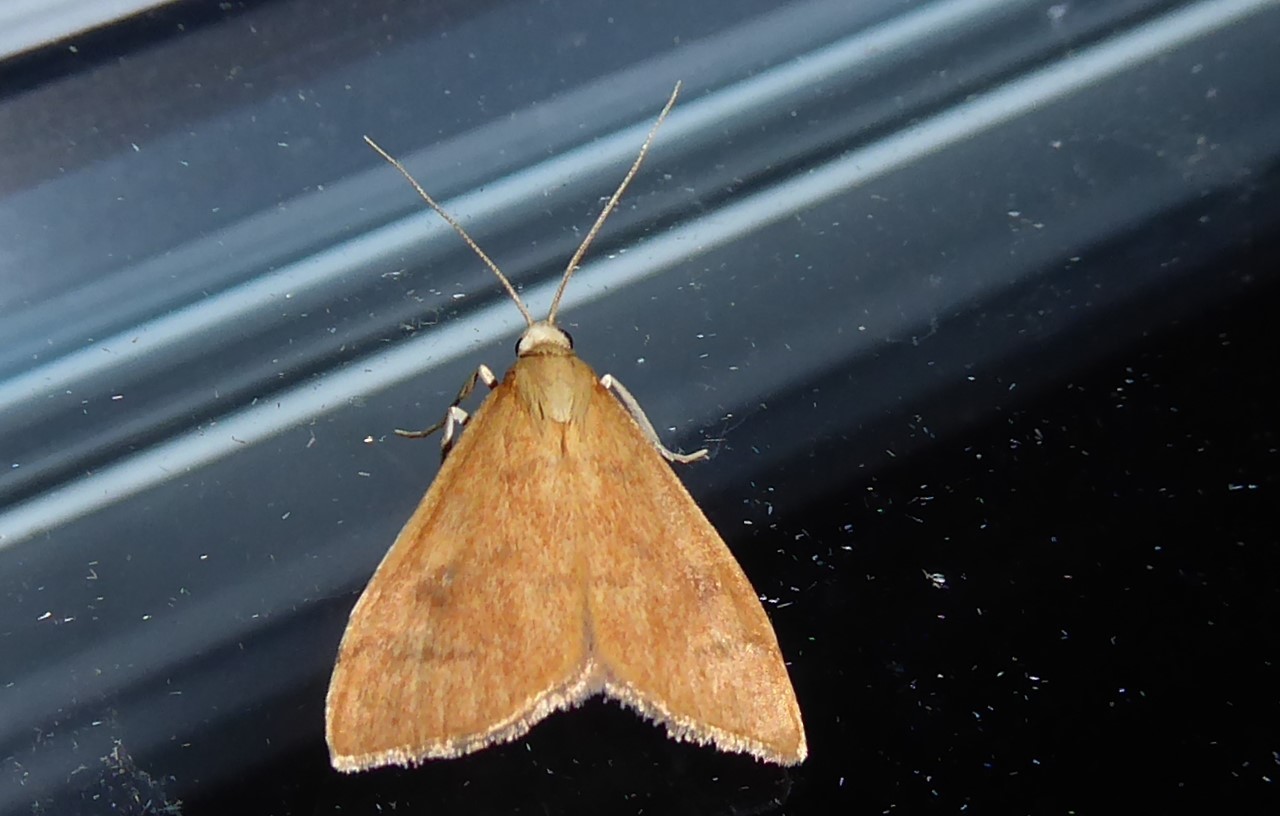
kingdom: Animalia
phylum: Arthropoda
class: Insecta
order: Lepidoptera
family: Crambidae
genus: Udea
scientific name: Udea Mnesictena flavidalis
